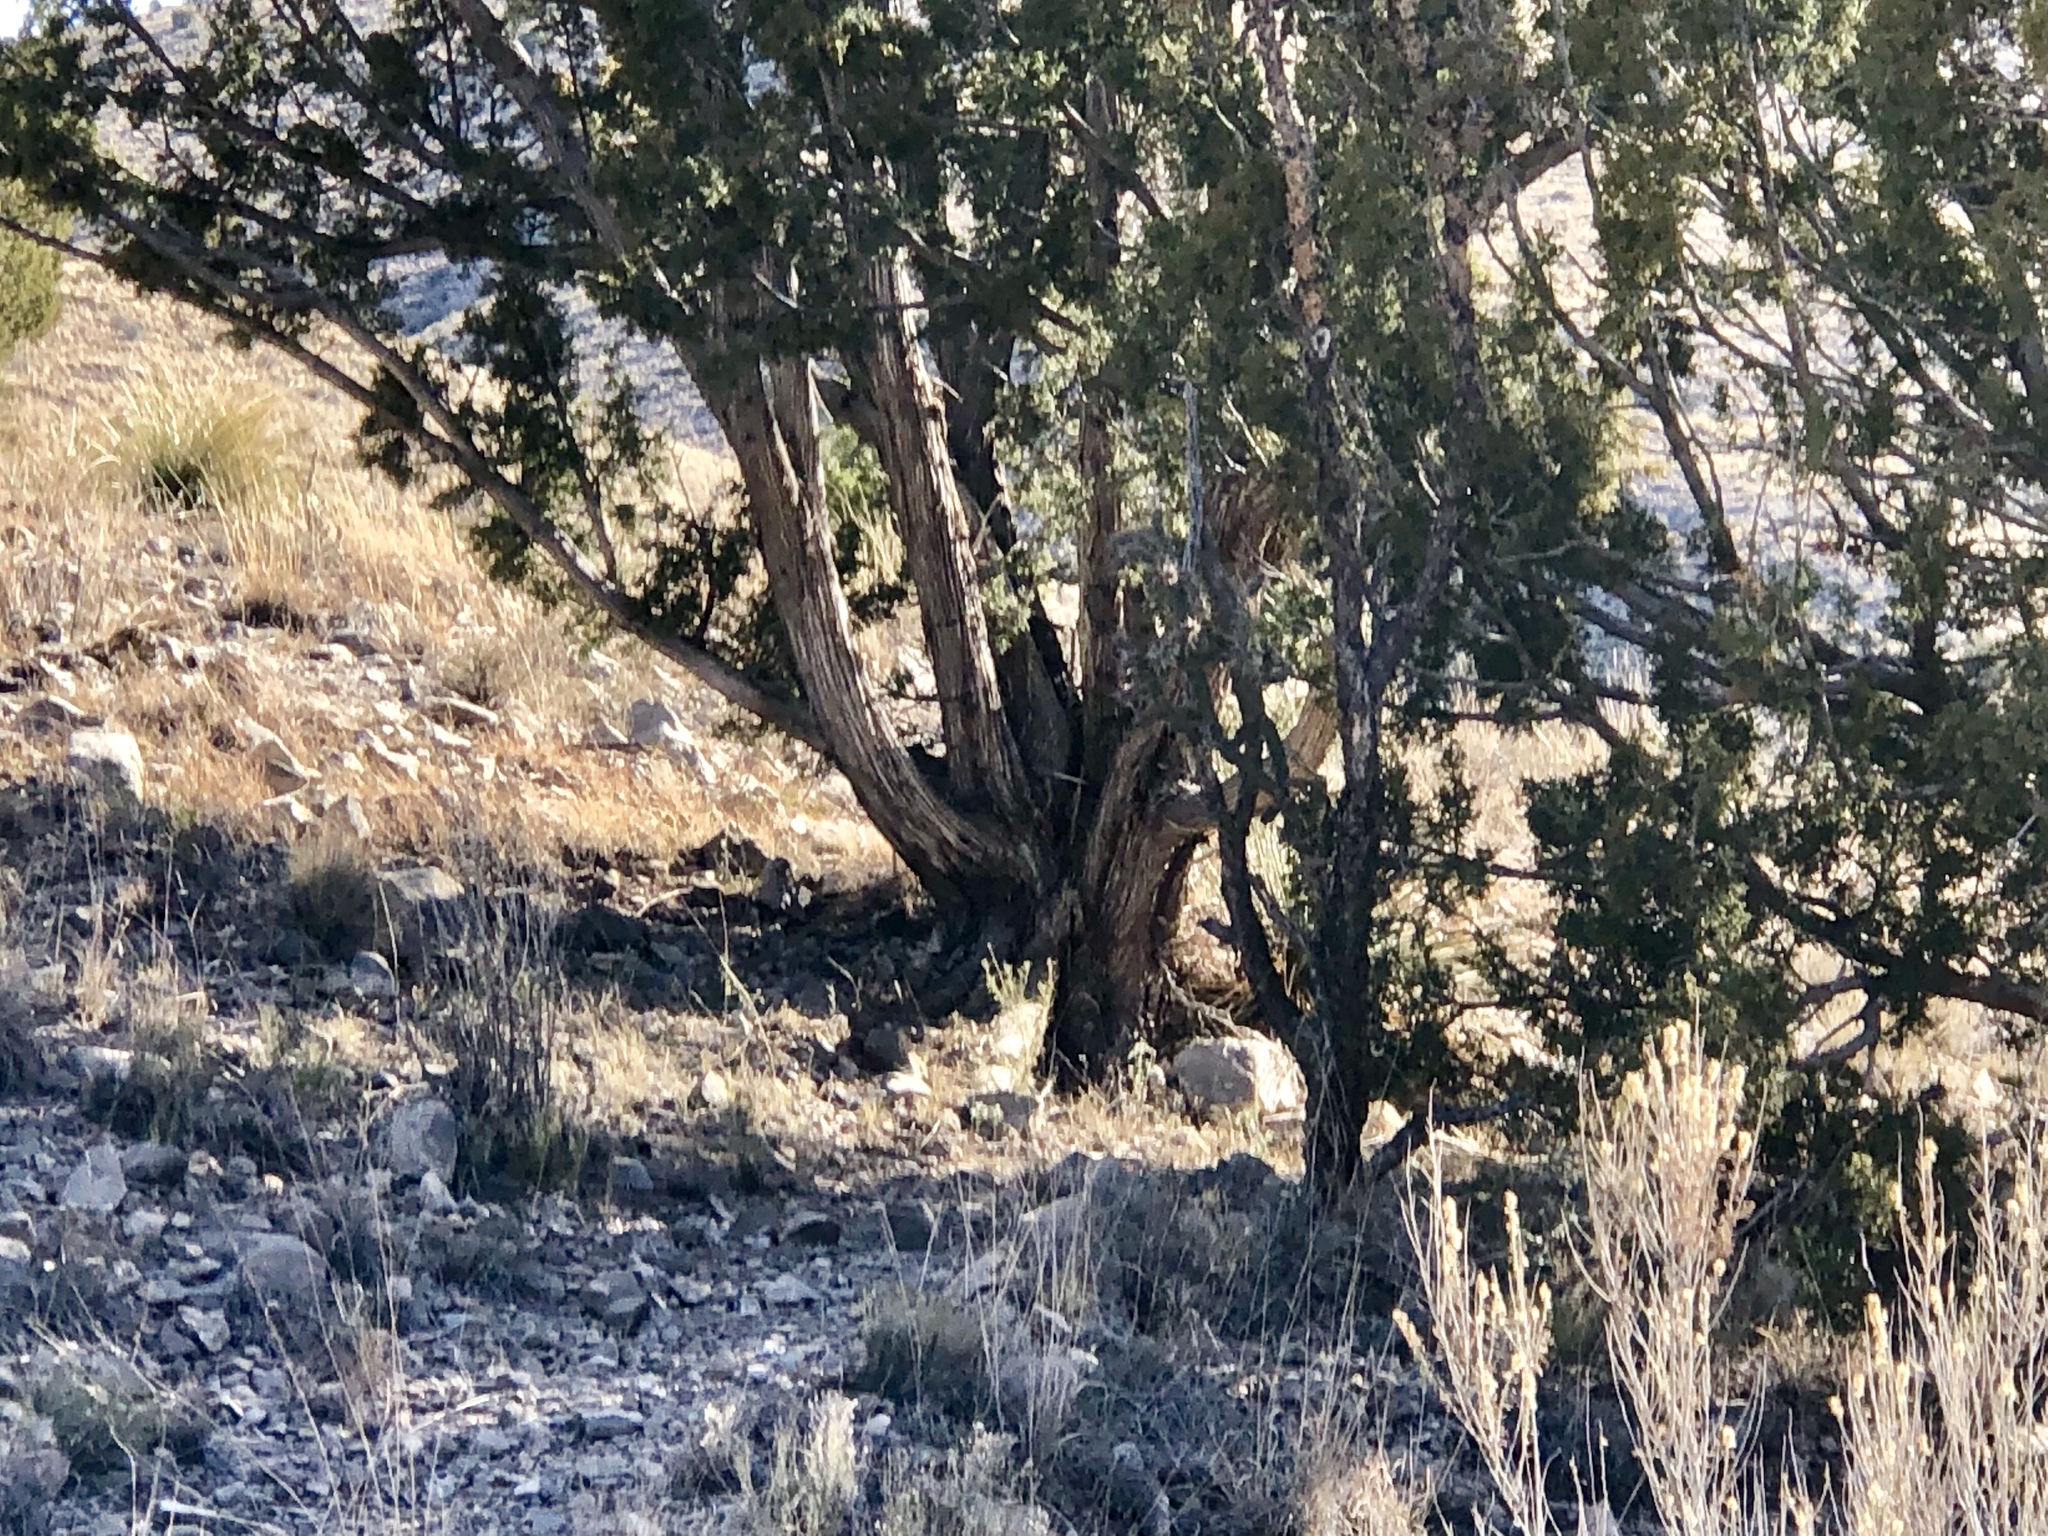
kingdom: Plantae
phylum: Tracheophyta
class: Pinopsida
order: Pinales
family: Cupressaceae
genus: Juniperus
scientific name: Juniperus monosperma
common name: One-seed juniper
